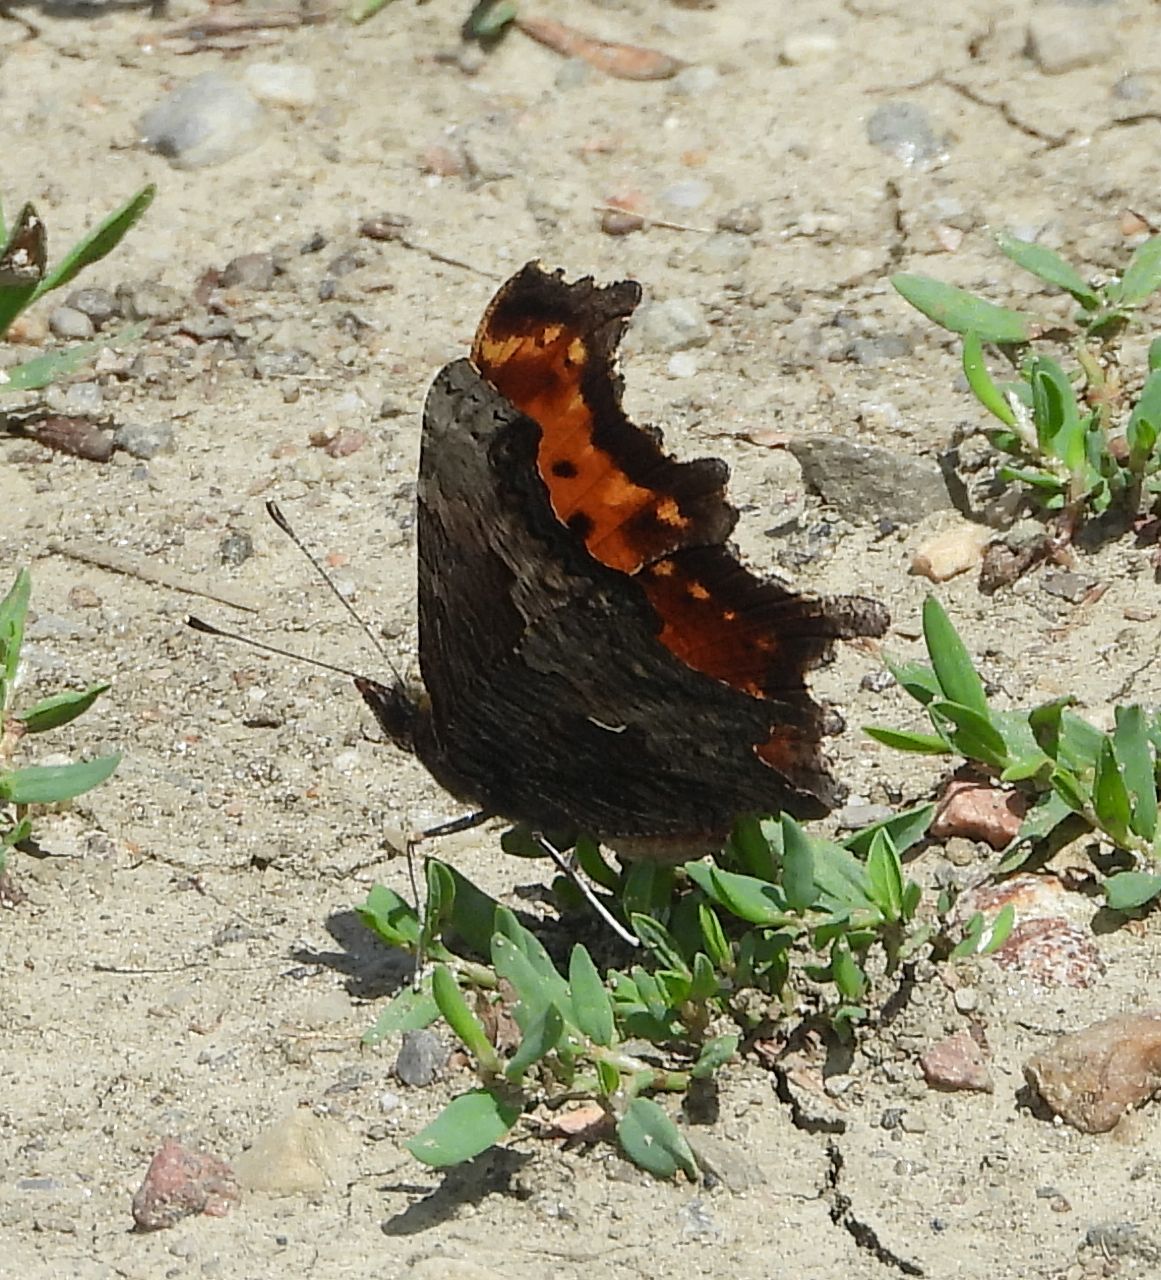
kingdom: Animalia
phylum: Arthropoda
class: Insecta
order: Lepidoptera
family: Nymphalidae
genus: Polygonia
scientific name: Polygonia progne
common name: Gray comma
